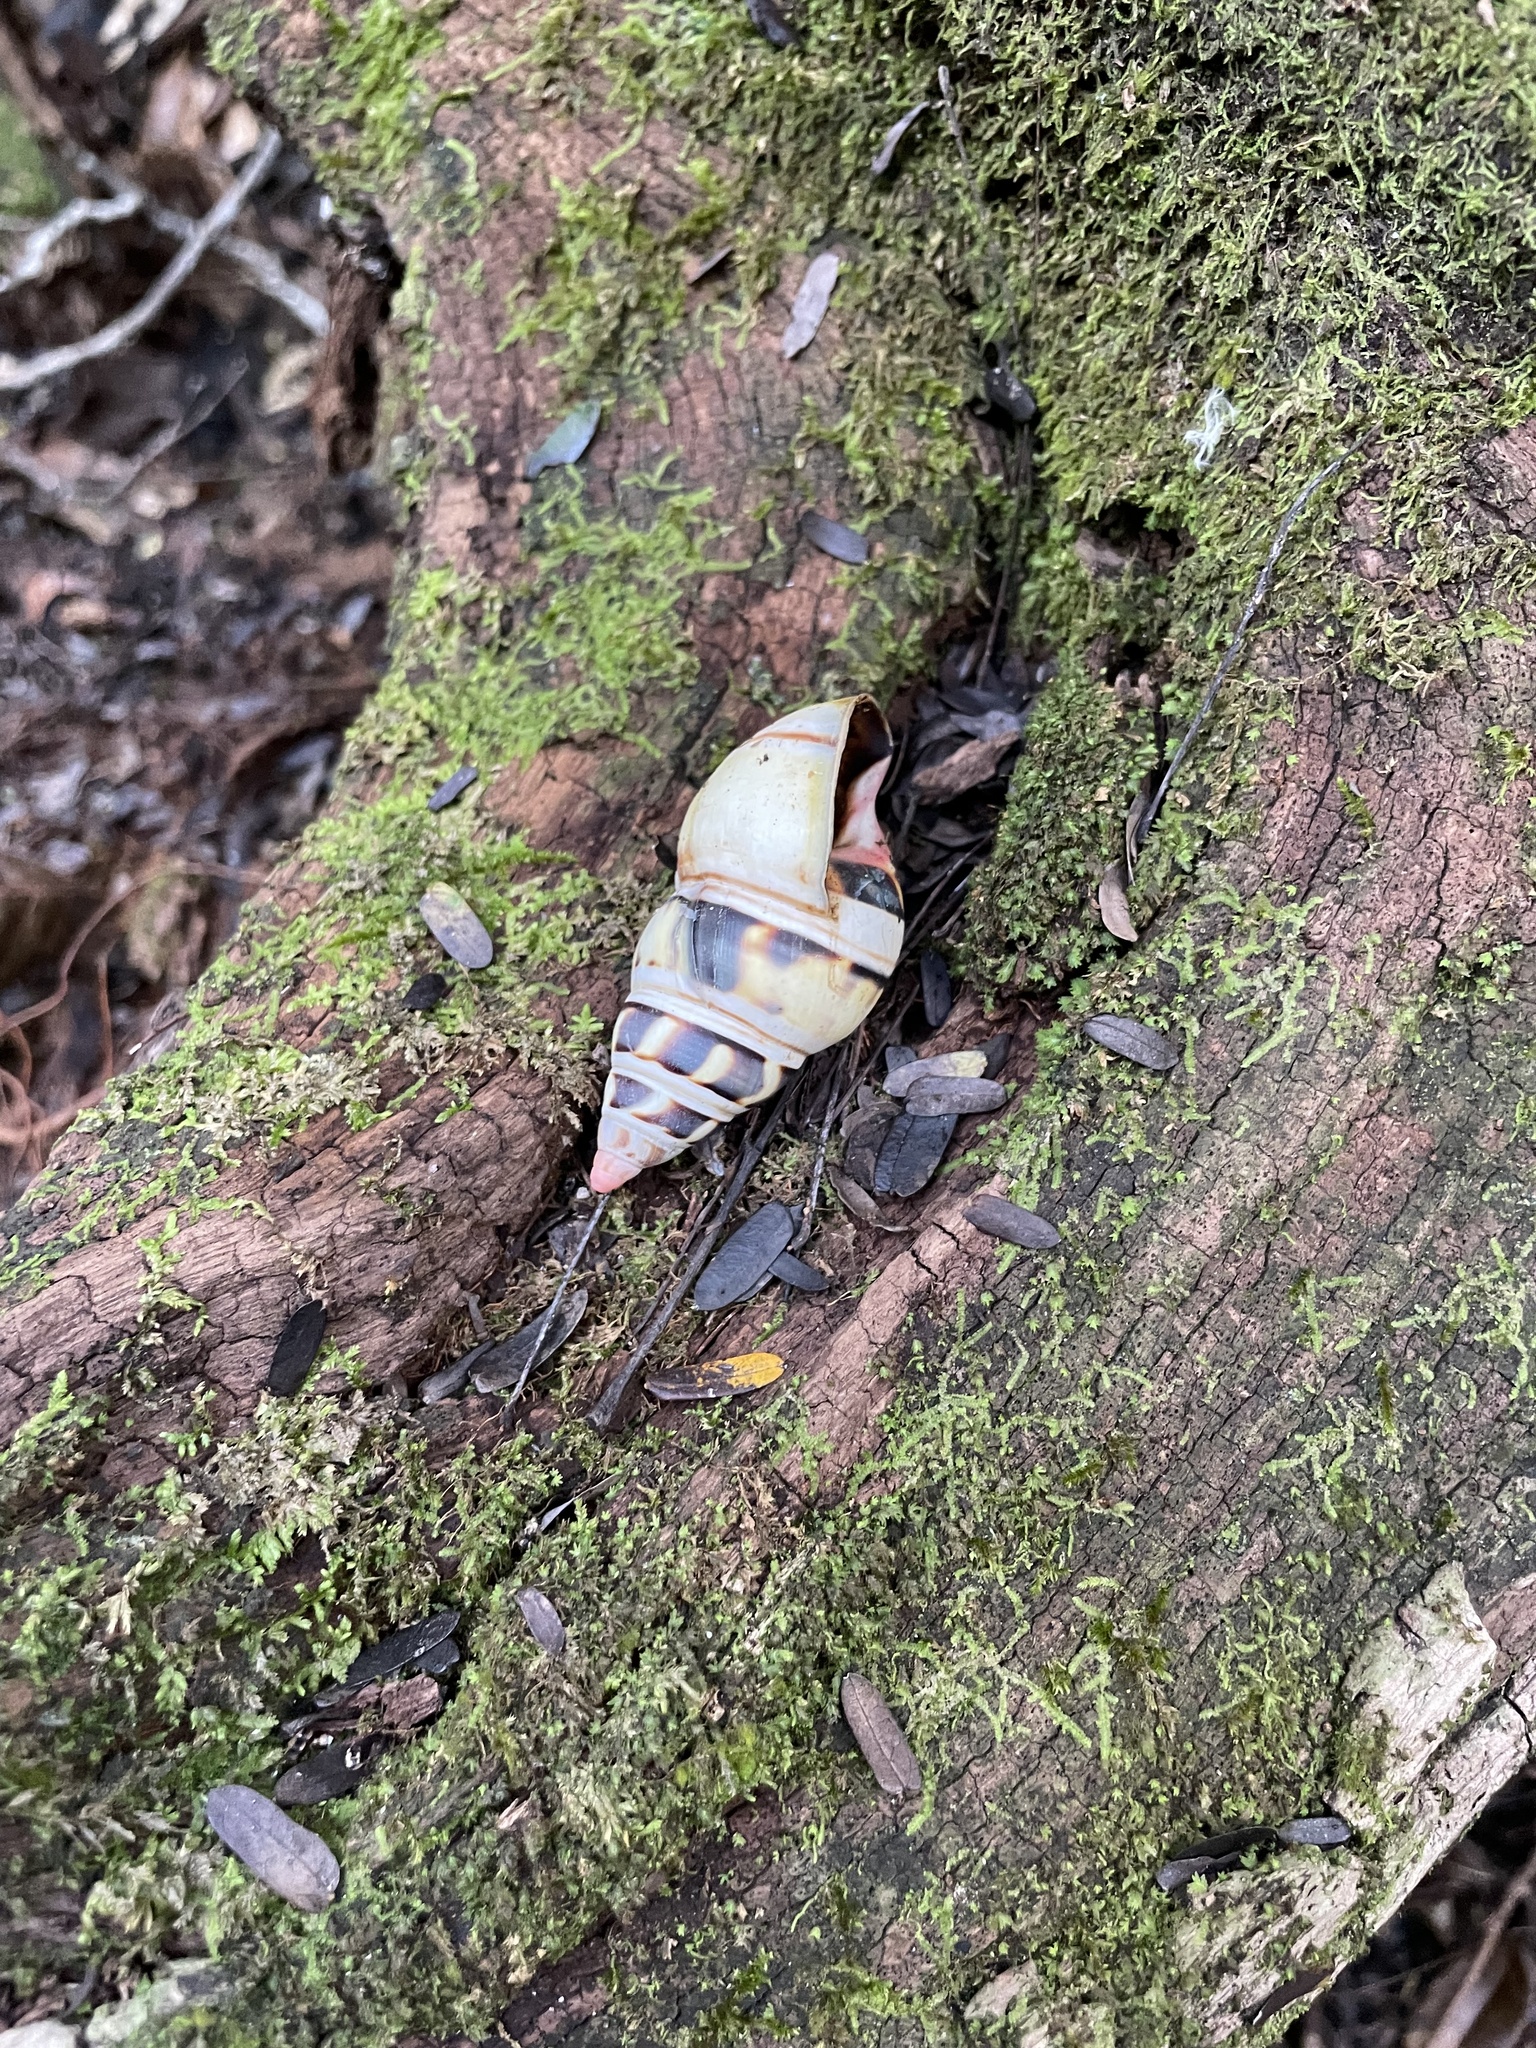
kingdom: Animalia
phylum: Mollusca
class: Gastropoda
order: Stylommatophora
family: Orthalicidae
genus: Liguus
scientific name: Liguus fasciatus
